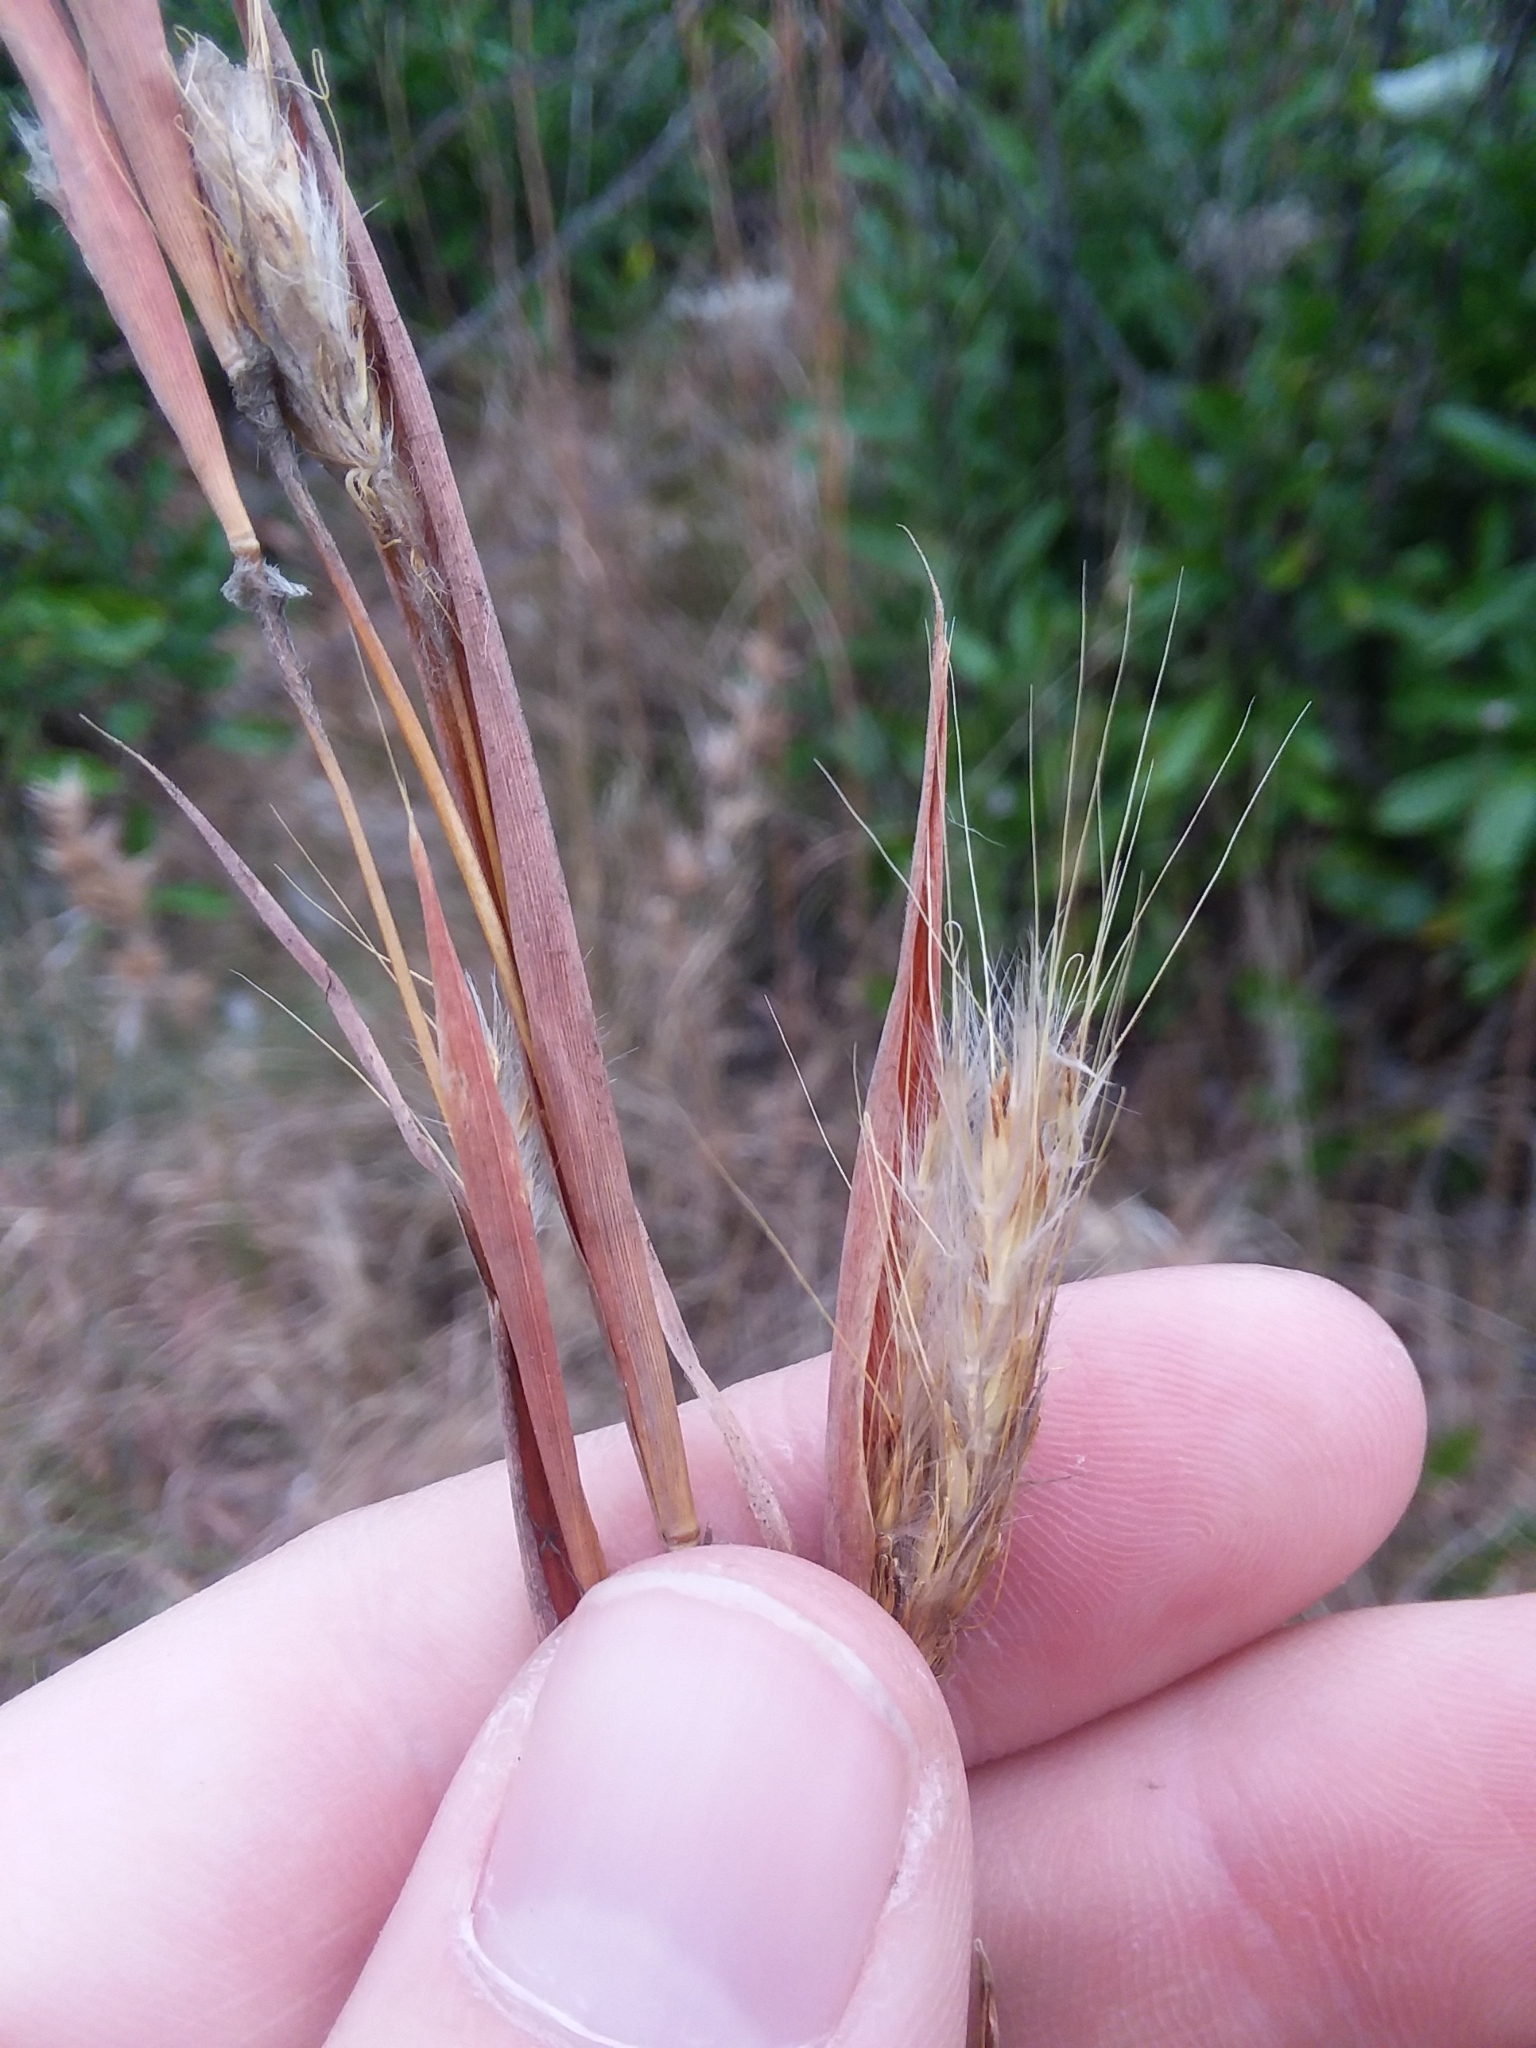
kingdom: Plantae
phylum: Tracheophyta
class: Liliopsida
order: Poales
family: Poaceae
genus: Andropogon
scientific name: Andropogon mohrii
